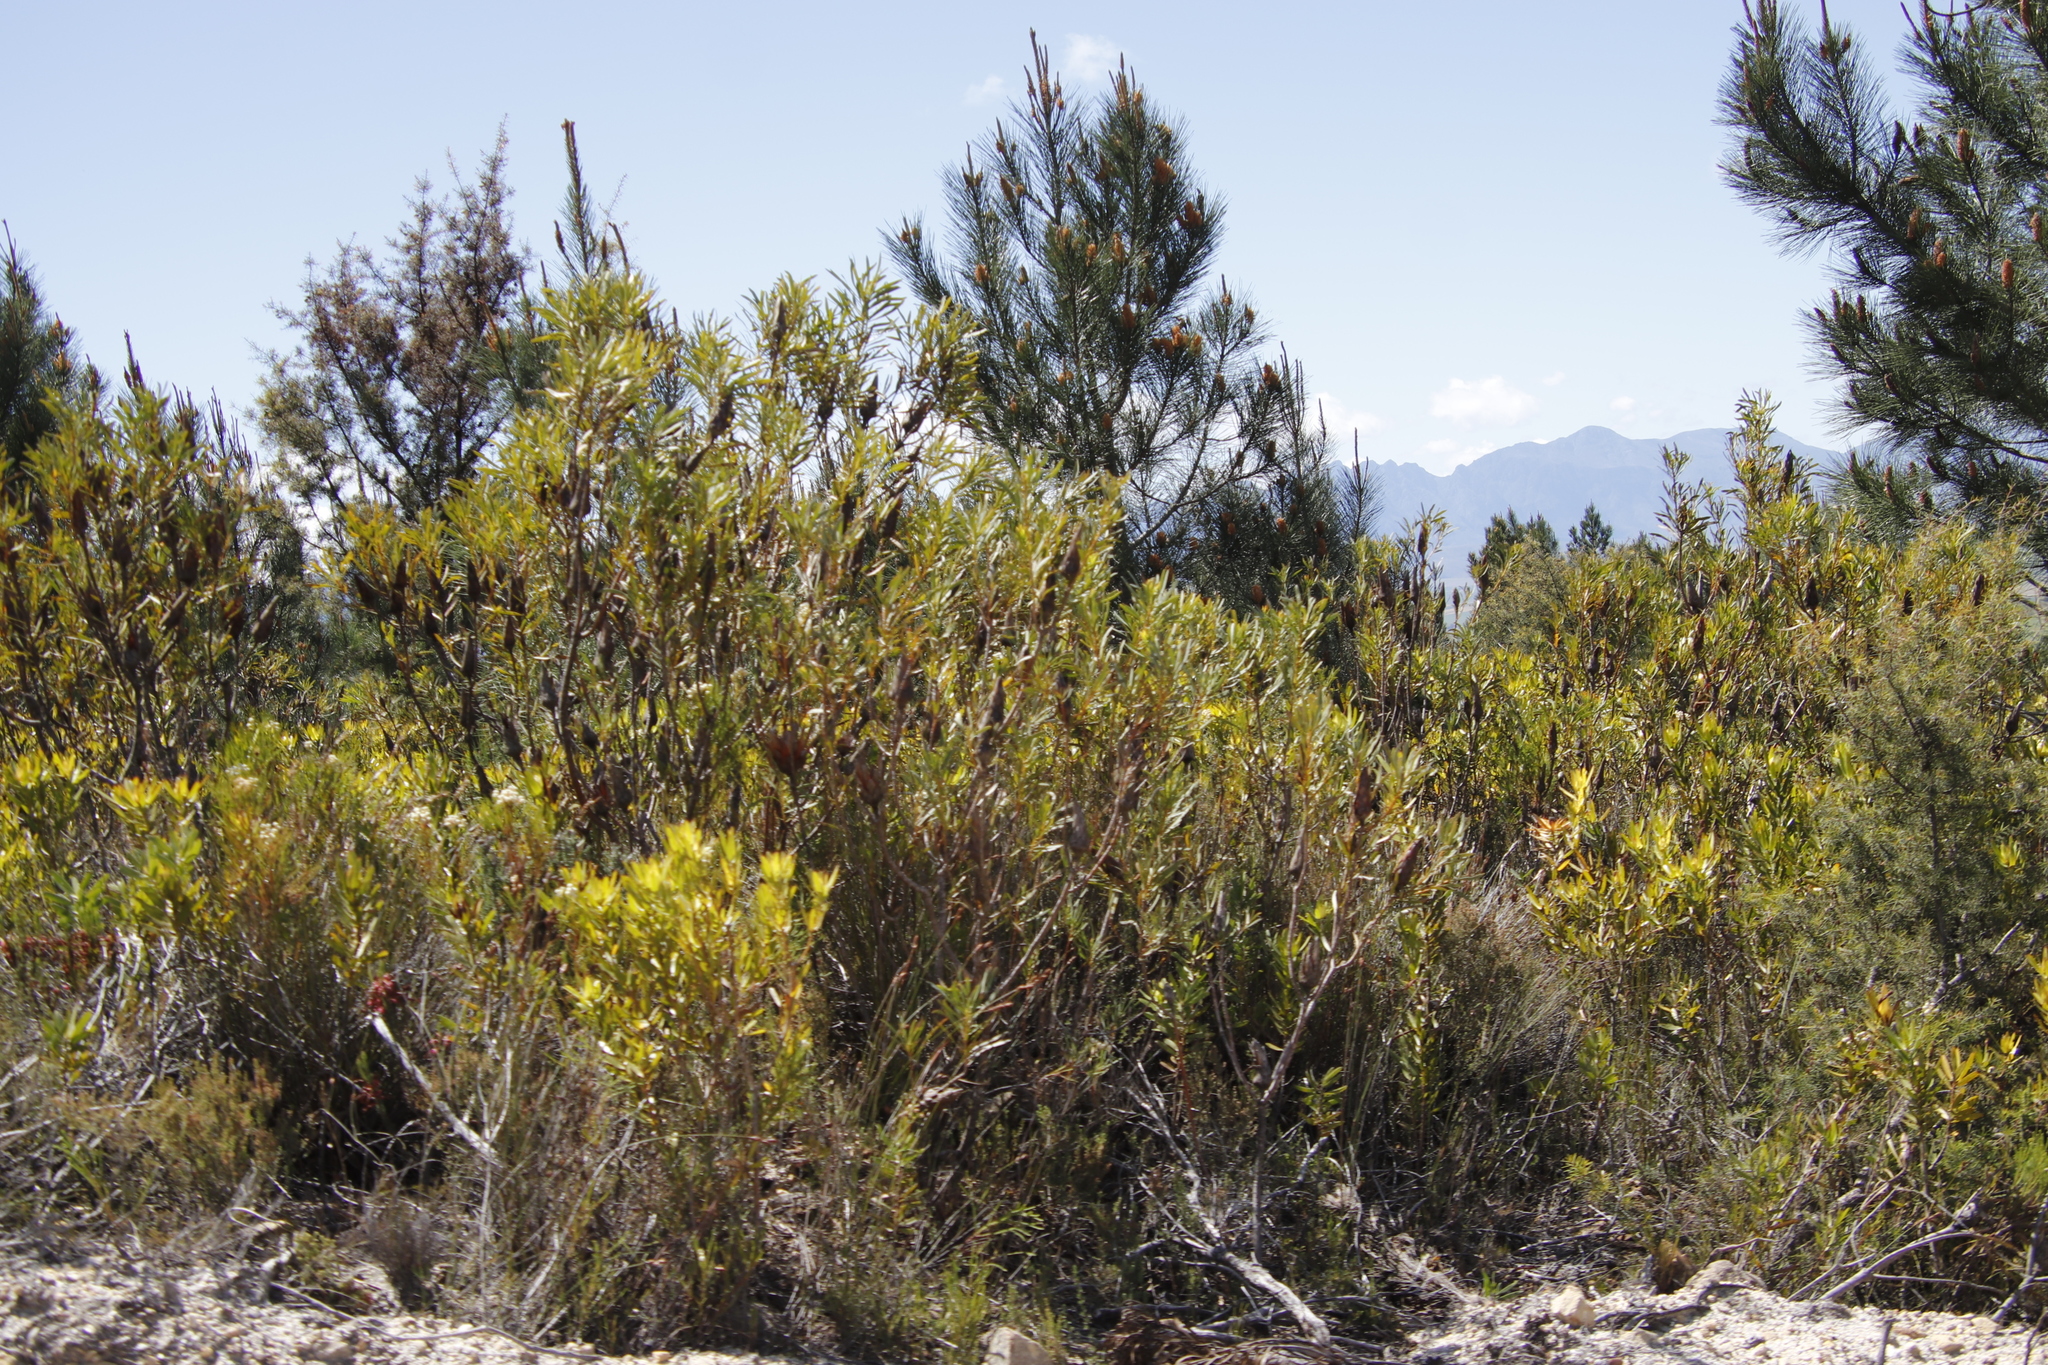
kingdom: Plantae
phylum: Tracheophyta
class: Magnoliopsida
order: Proteales
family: Proteaceae
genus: Protea
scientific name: Protea repens
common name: Sugarbush
